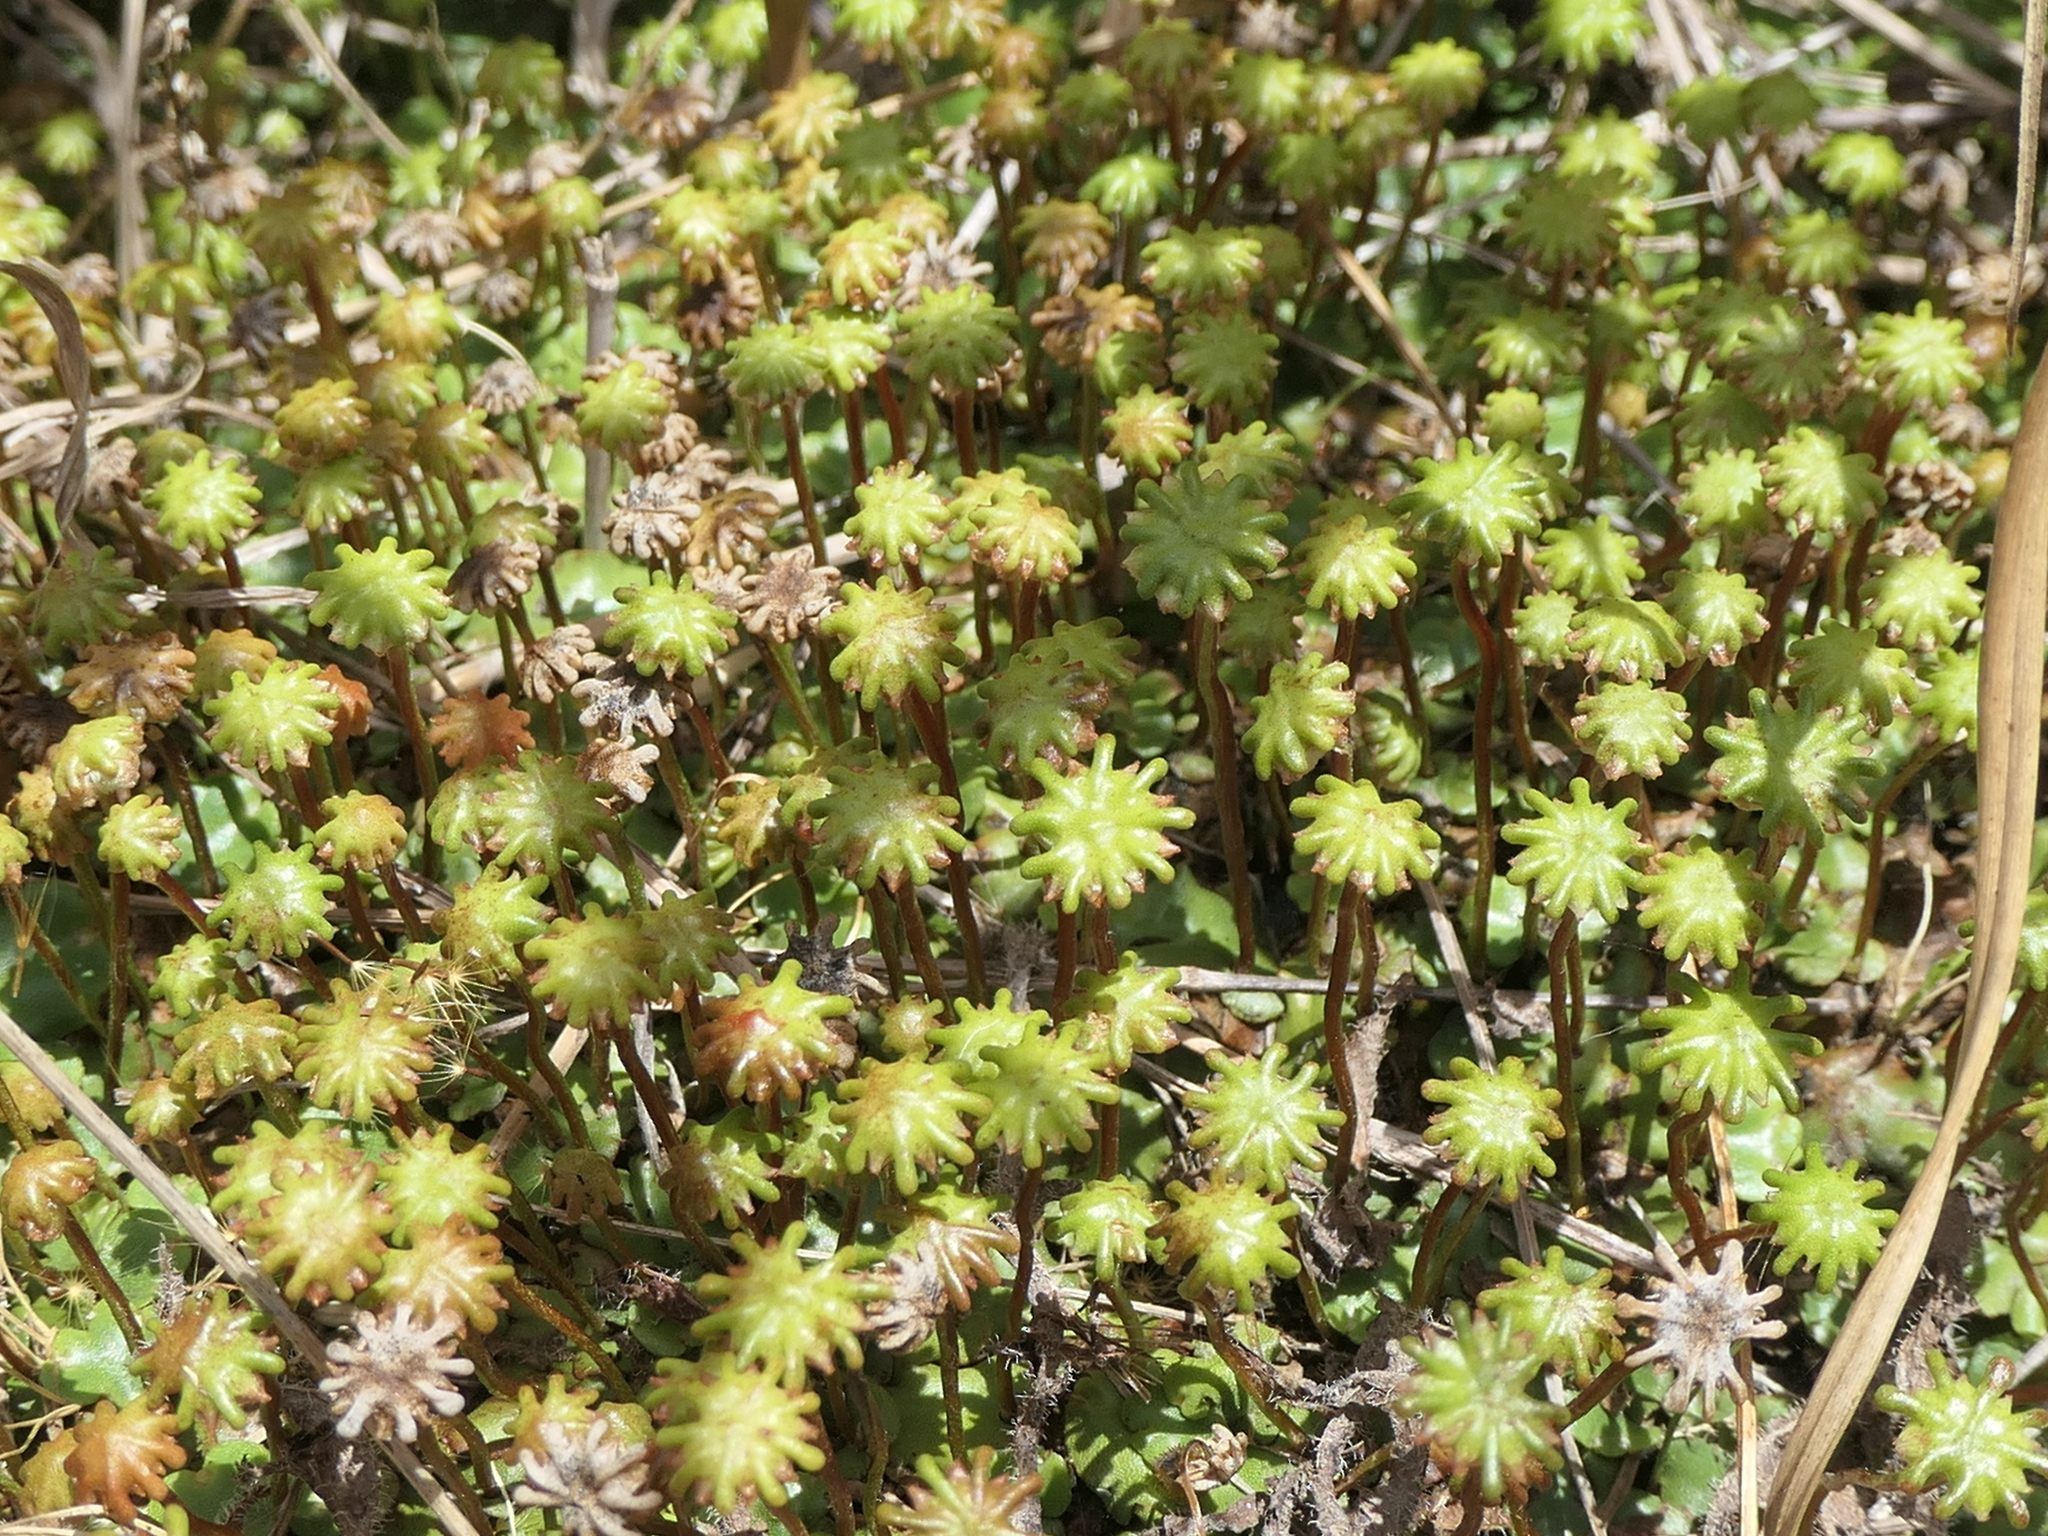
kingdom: Plantae
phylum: Marchantiophyta
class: Marchantiopsida
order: Marchantiales
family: Marchantiaceae
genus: Marchantia
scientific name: Marchantia berteroana
